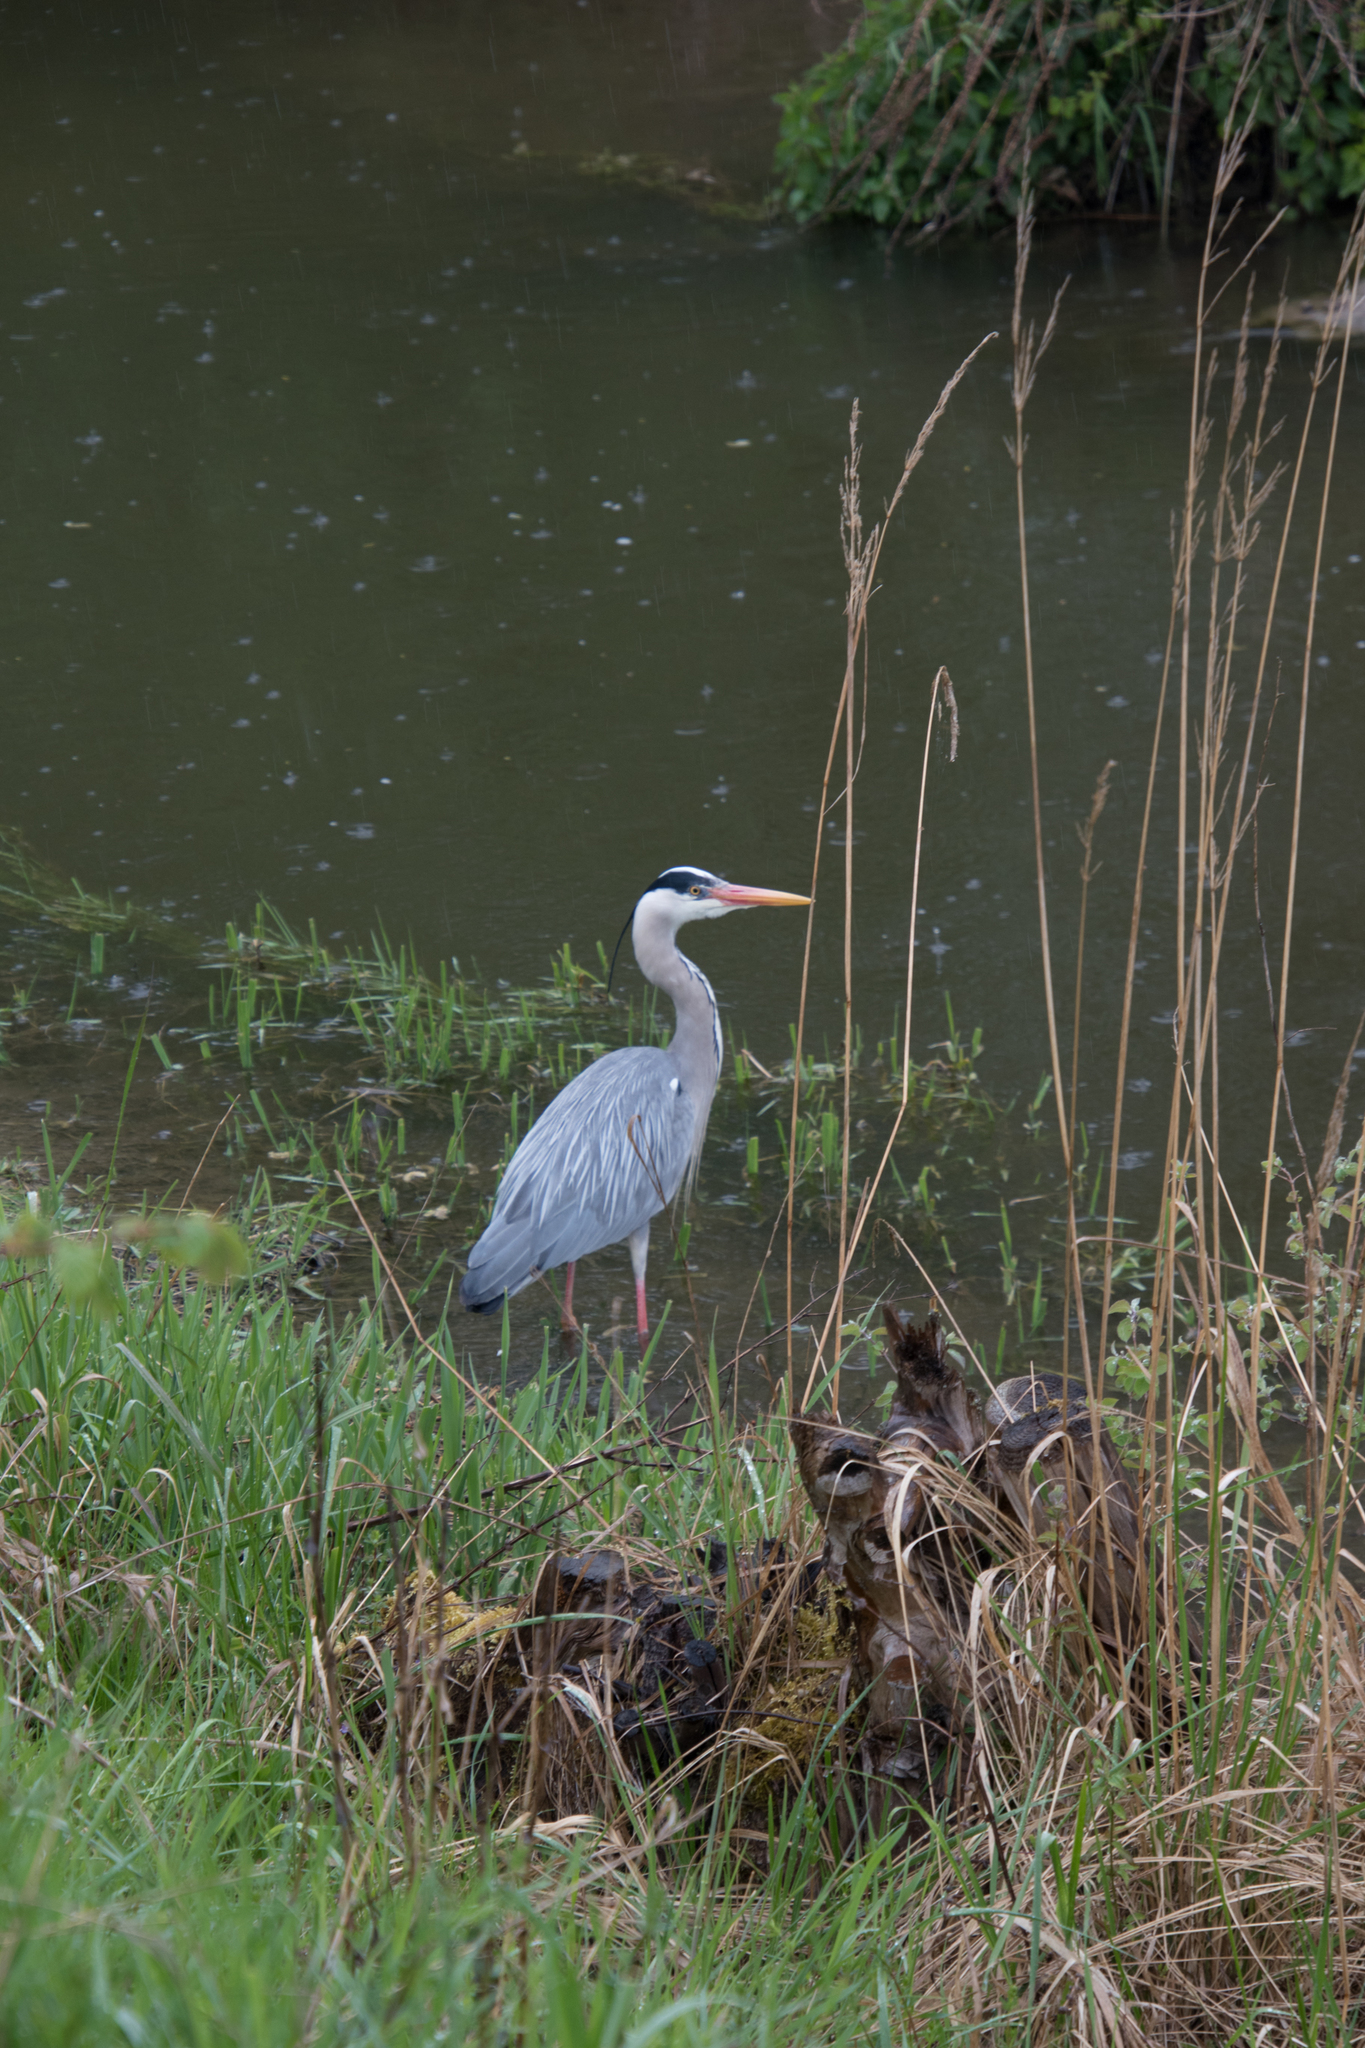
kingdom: Animalia
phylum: Chordata
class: Aves
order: Pelecaniformes
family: Ardeidae
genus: Ardea
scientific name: Ardea cinerea
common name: Grey heron
